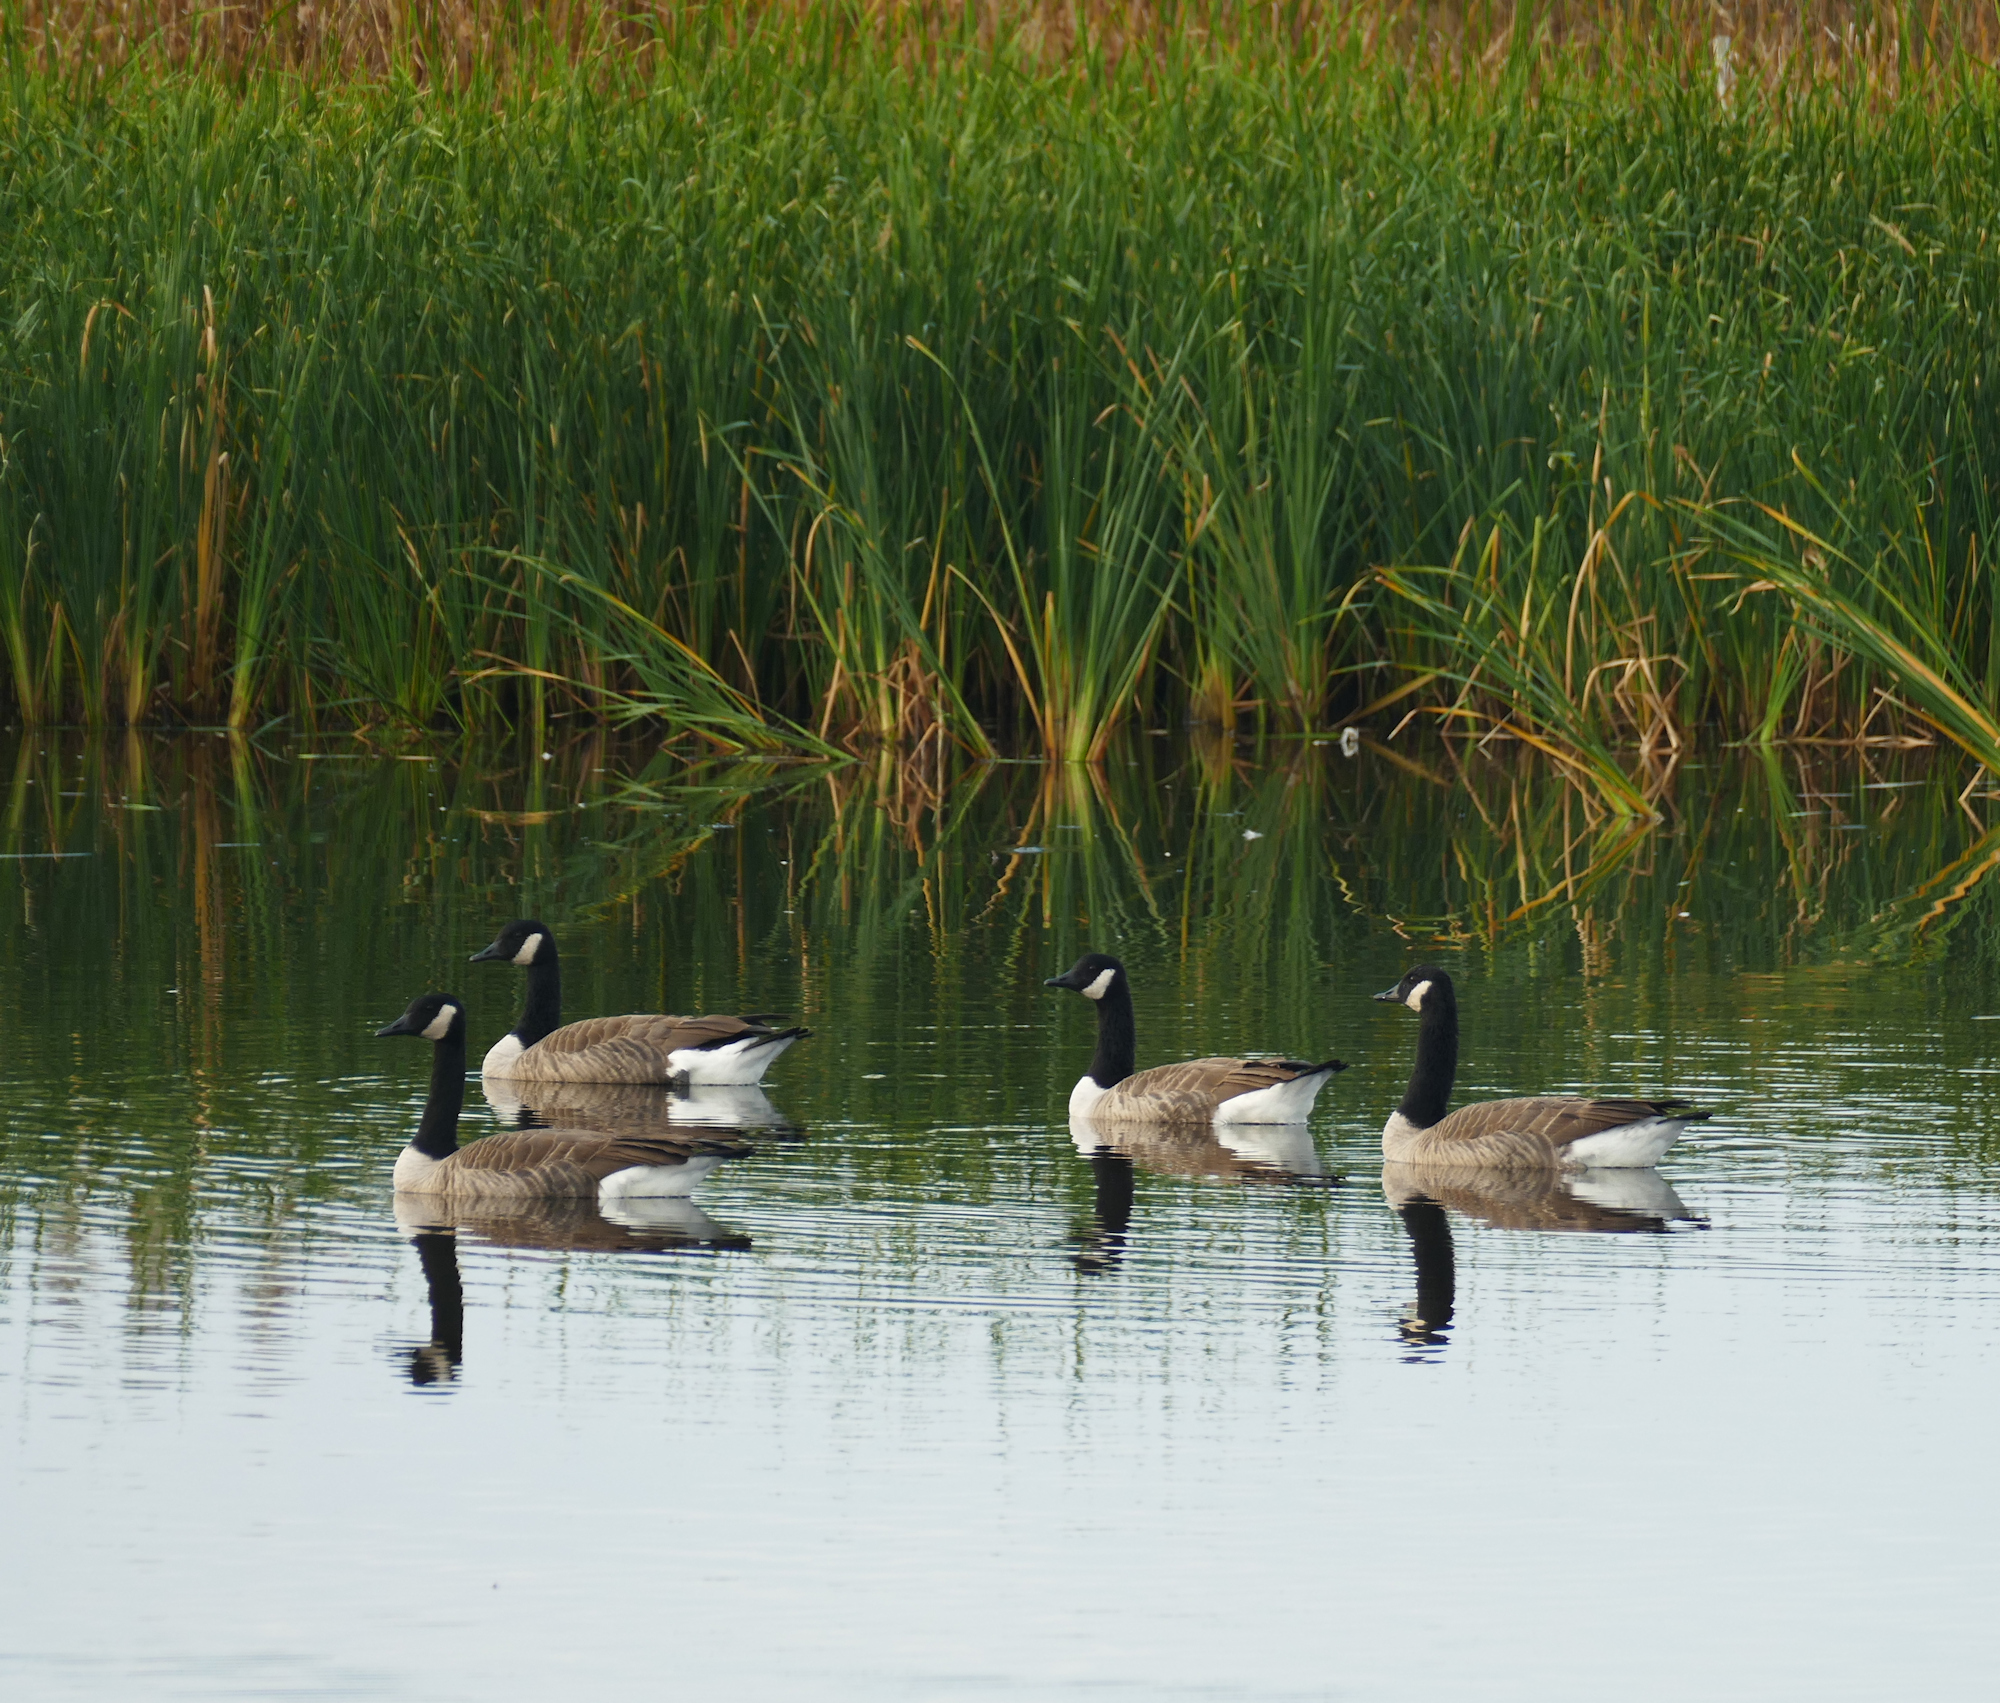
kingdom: Animalia
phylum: Chordata
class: Aves
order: Anseriformes
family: Anatidae
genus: Branta
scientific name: Branta canadensis
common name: Canada goose
